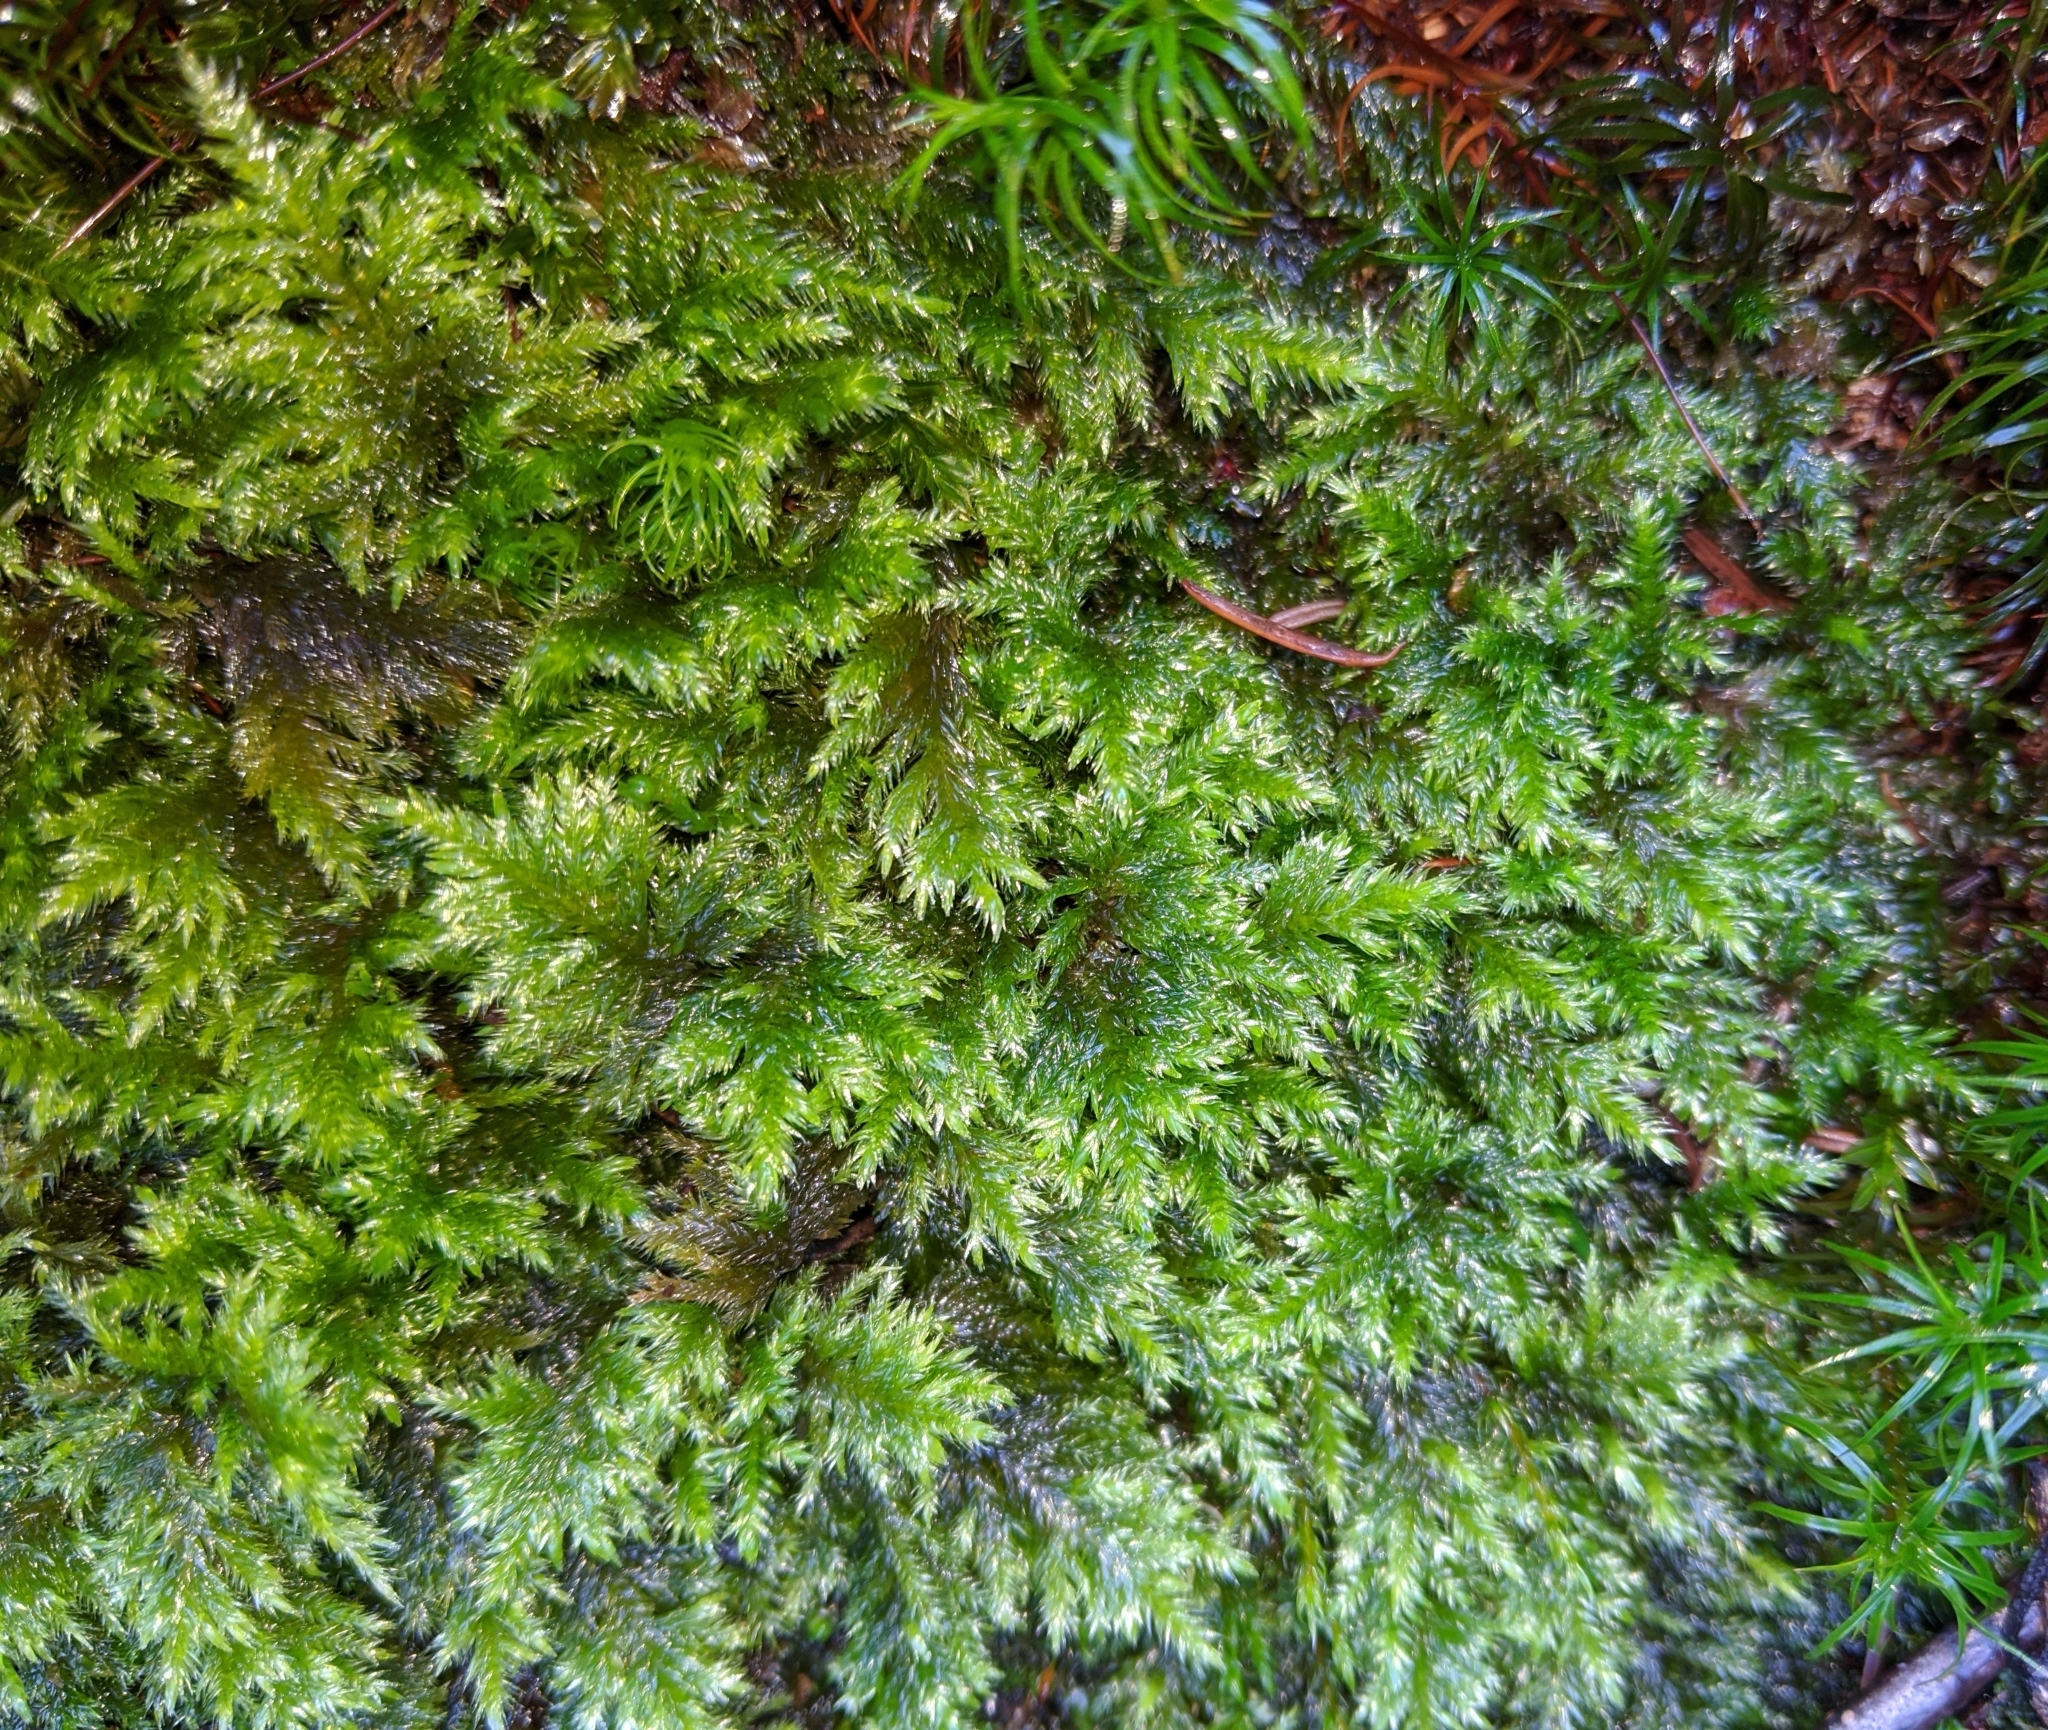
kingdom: Plantae
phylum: Bryophyta
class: Bryopsida
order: Hypnales
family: Cryphaeaceae
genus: Dendroalsia
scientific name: Dendroalsia abietina
